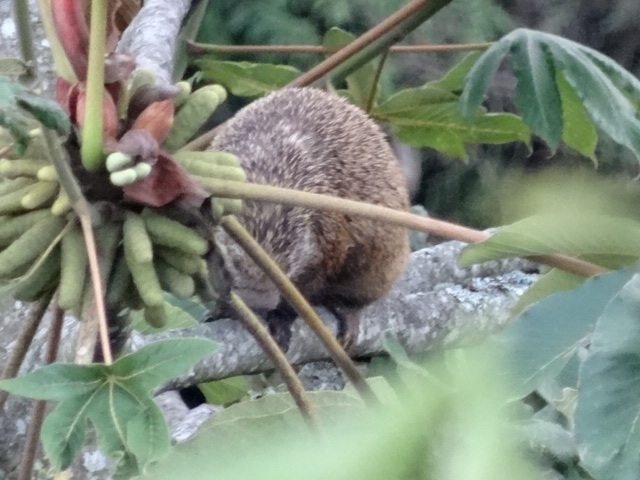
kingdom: Animalia
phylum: Chordata
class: Mammalia
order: Rodentia
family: Erethizontidae
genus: Echinoprocta
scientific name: Echinoprocta rufescens
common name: Stump-tailed porcupine
